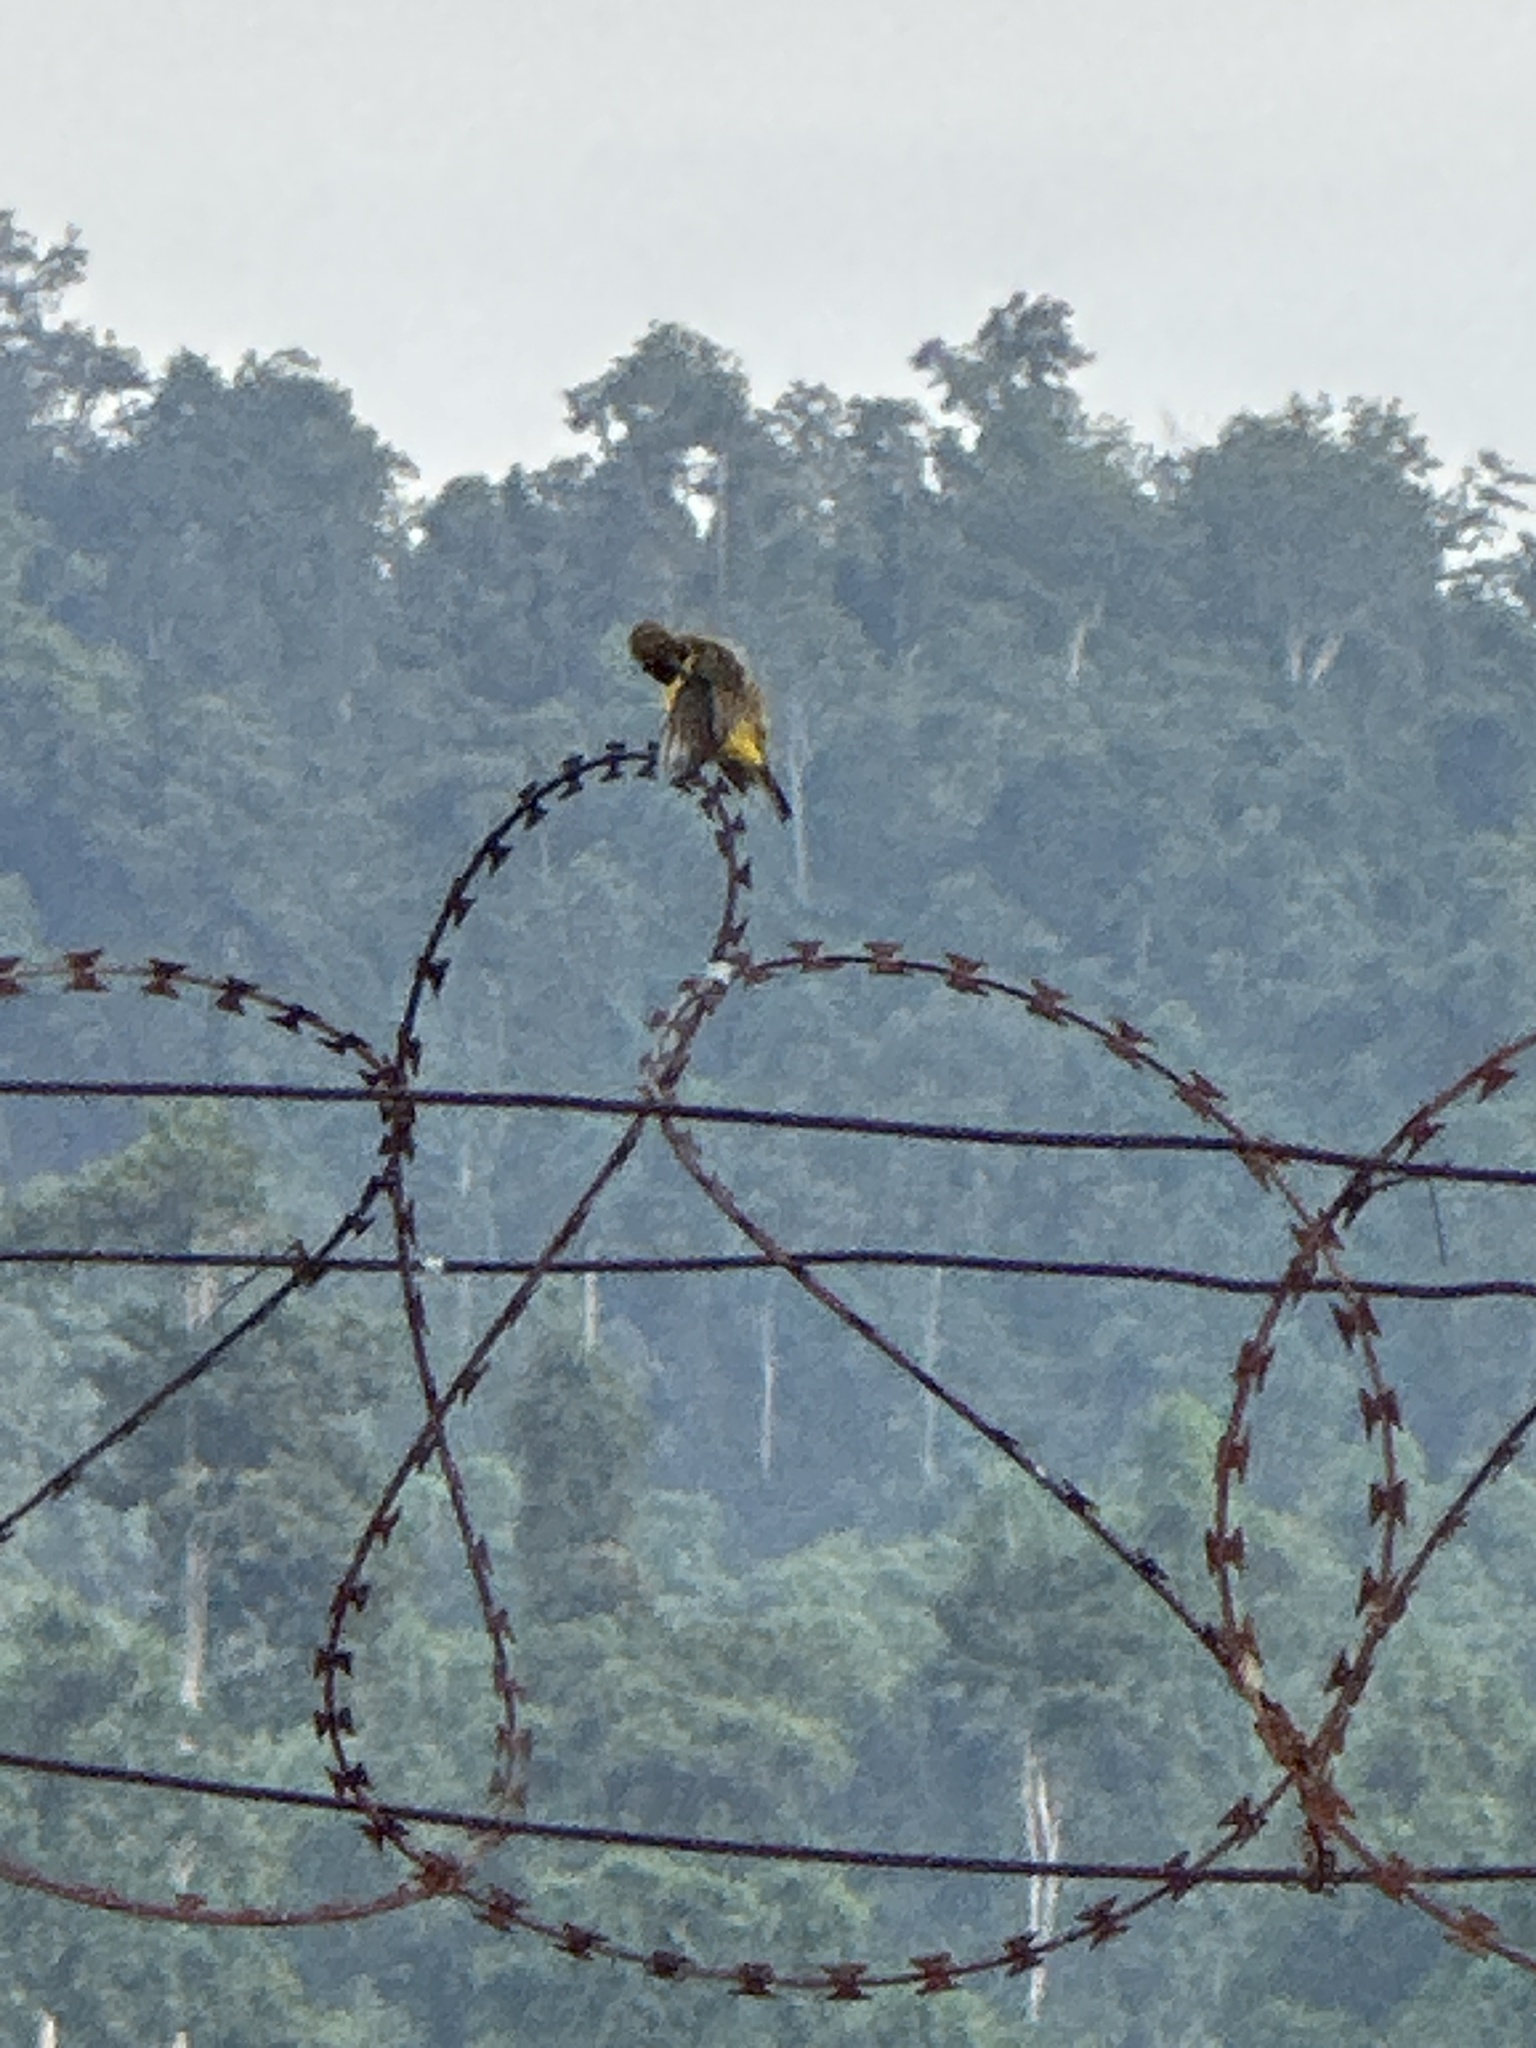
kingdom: Animalia
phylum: Chordata
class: Aves
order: Passeriformes
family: Nectariniidae
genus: Cinnyris
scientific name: Cinnyris
